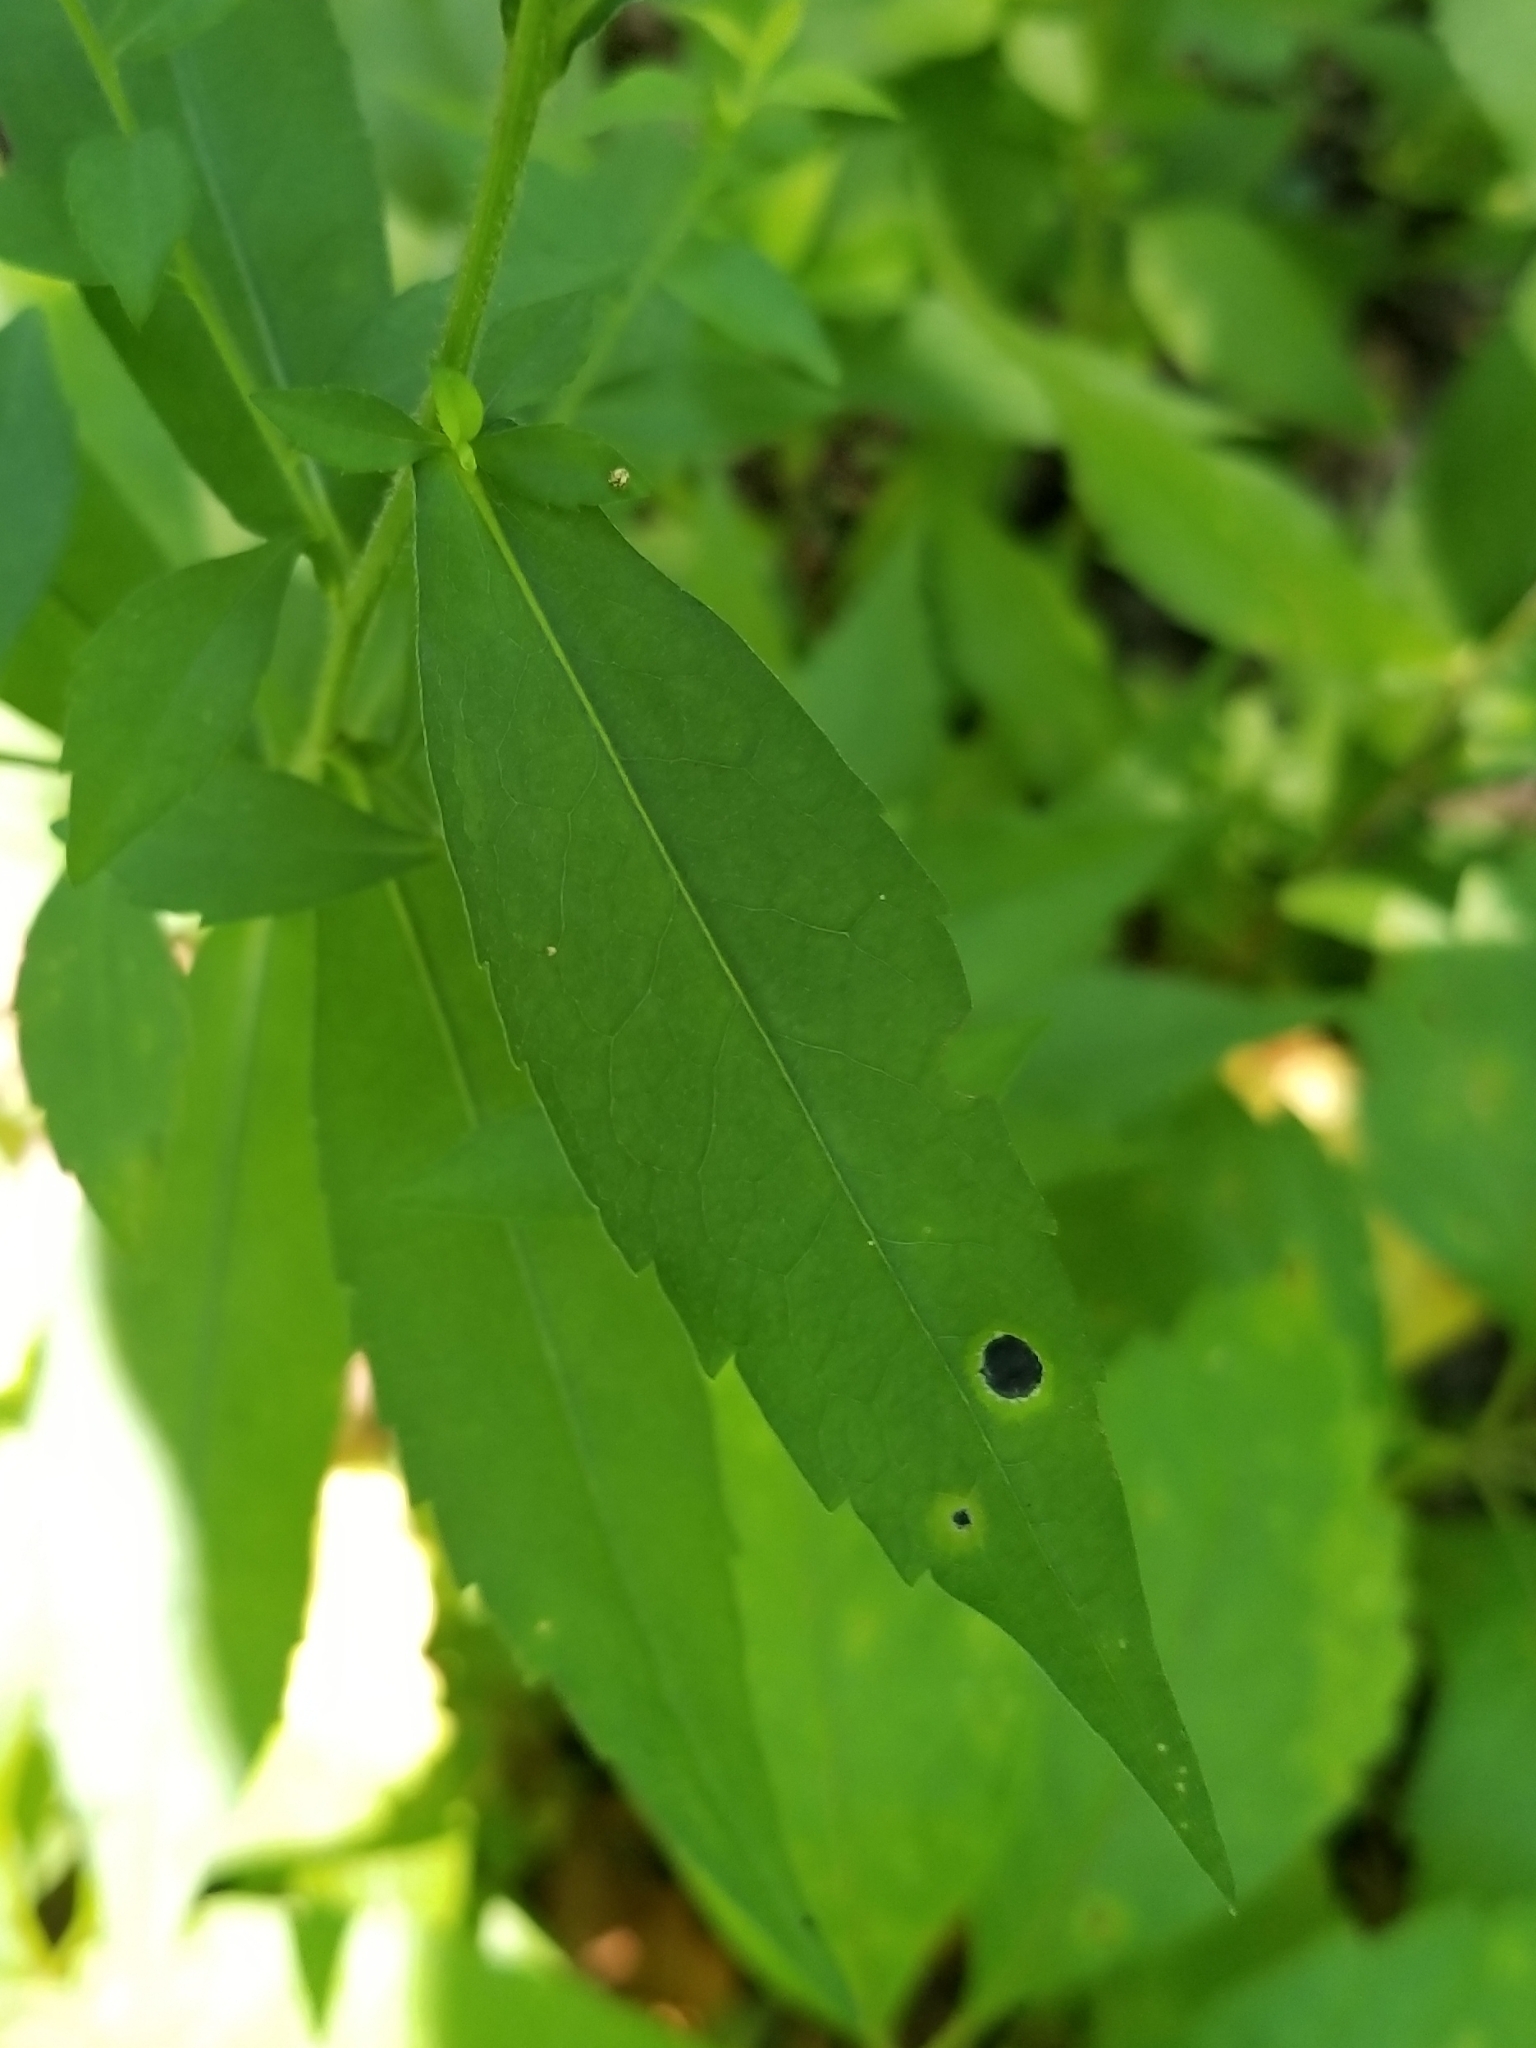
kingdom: Animalia
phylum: Arthropoda
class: Insecta
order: Diptera
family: Cecidomyiidae
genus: Asteromyia
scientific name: Asteromyia laeviana
